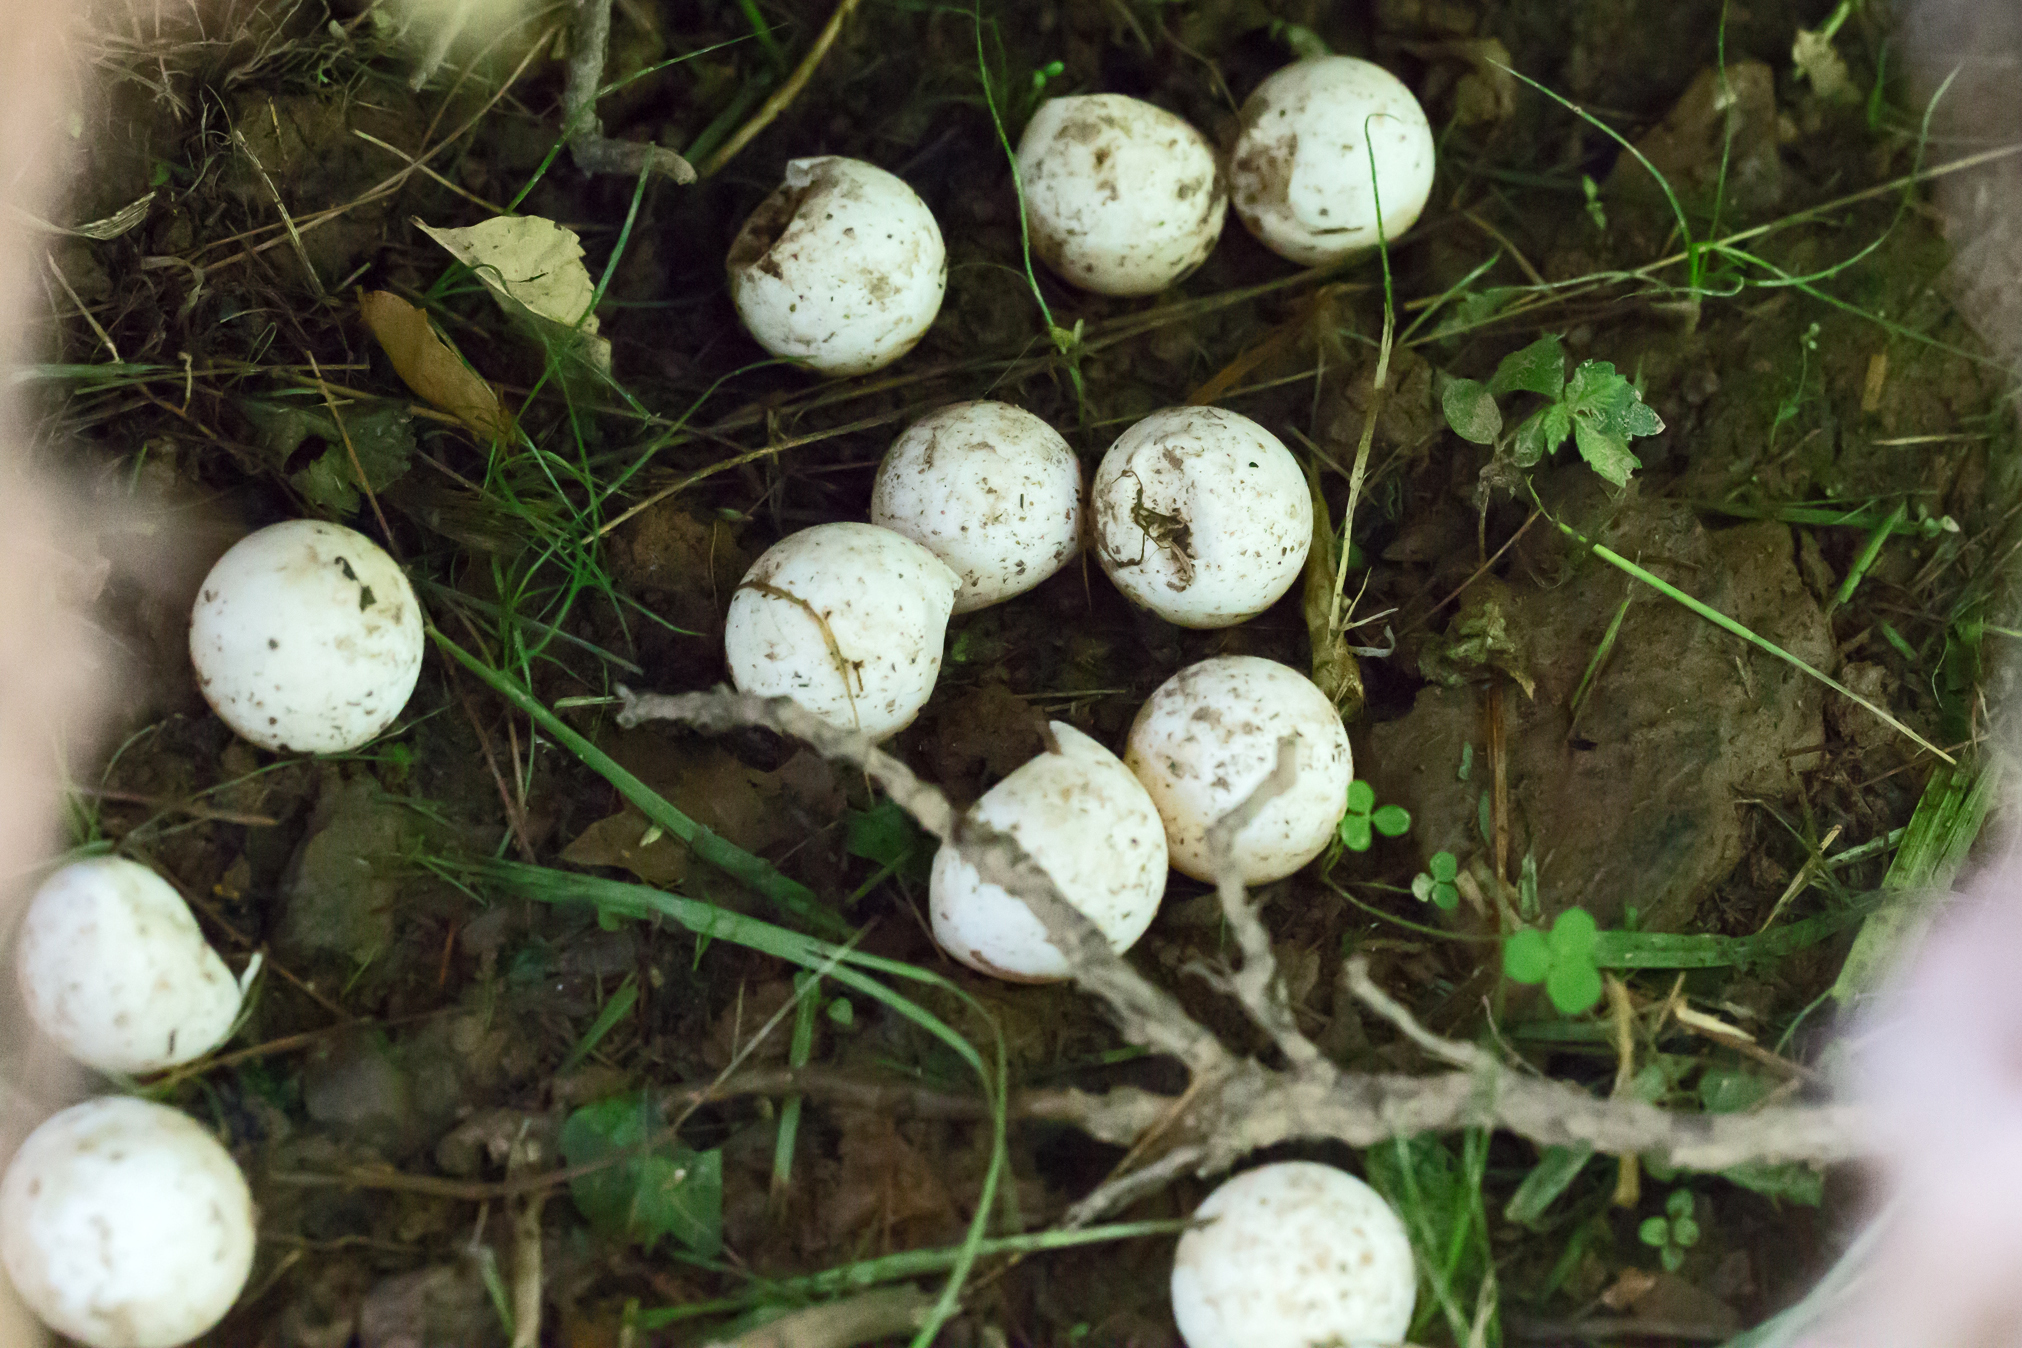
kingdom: Animalia
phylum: Chordata
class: Testudines
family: Chelydridae
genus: Chelydra
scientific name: Chelydra serpentina
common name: Common snapping turtle
